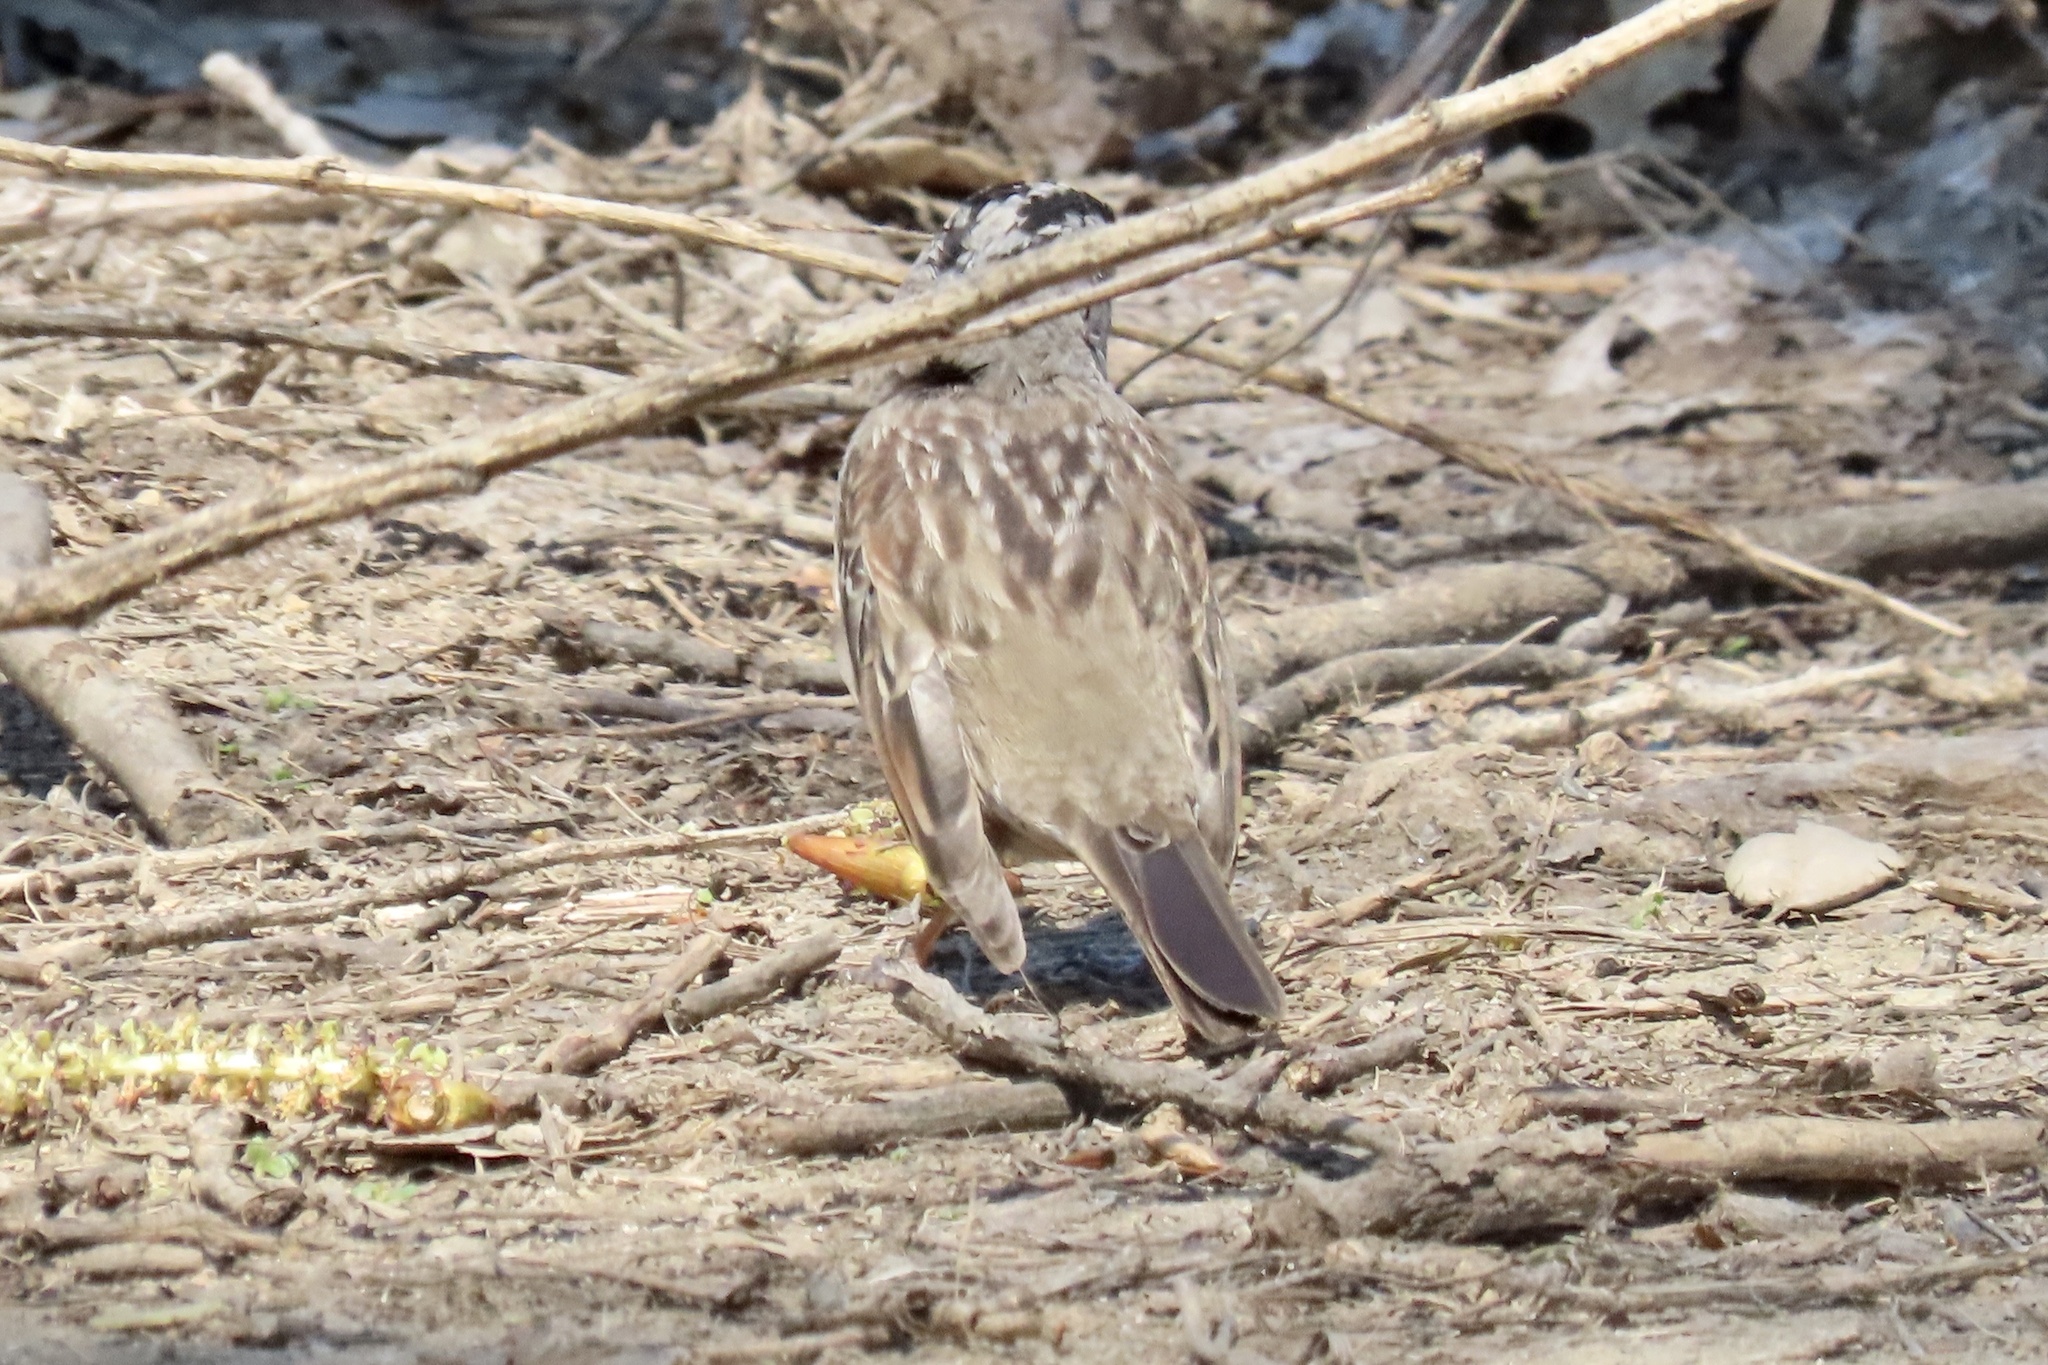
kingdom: Animalia
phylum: Chordata
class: Aves
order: Passeriformes
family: Passerellidae
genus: Zonotrichia
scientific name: Zonotrichia leucophrys
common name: White-crowned sparrow
